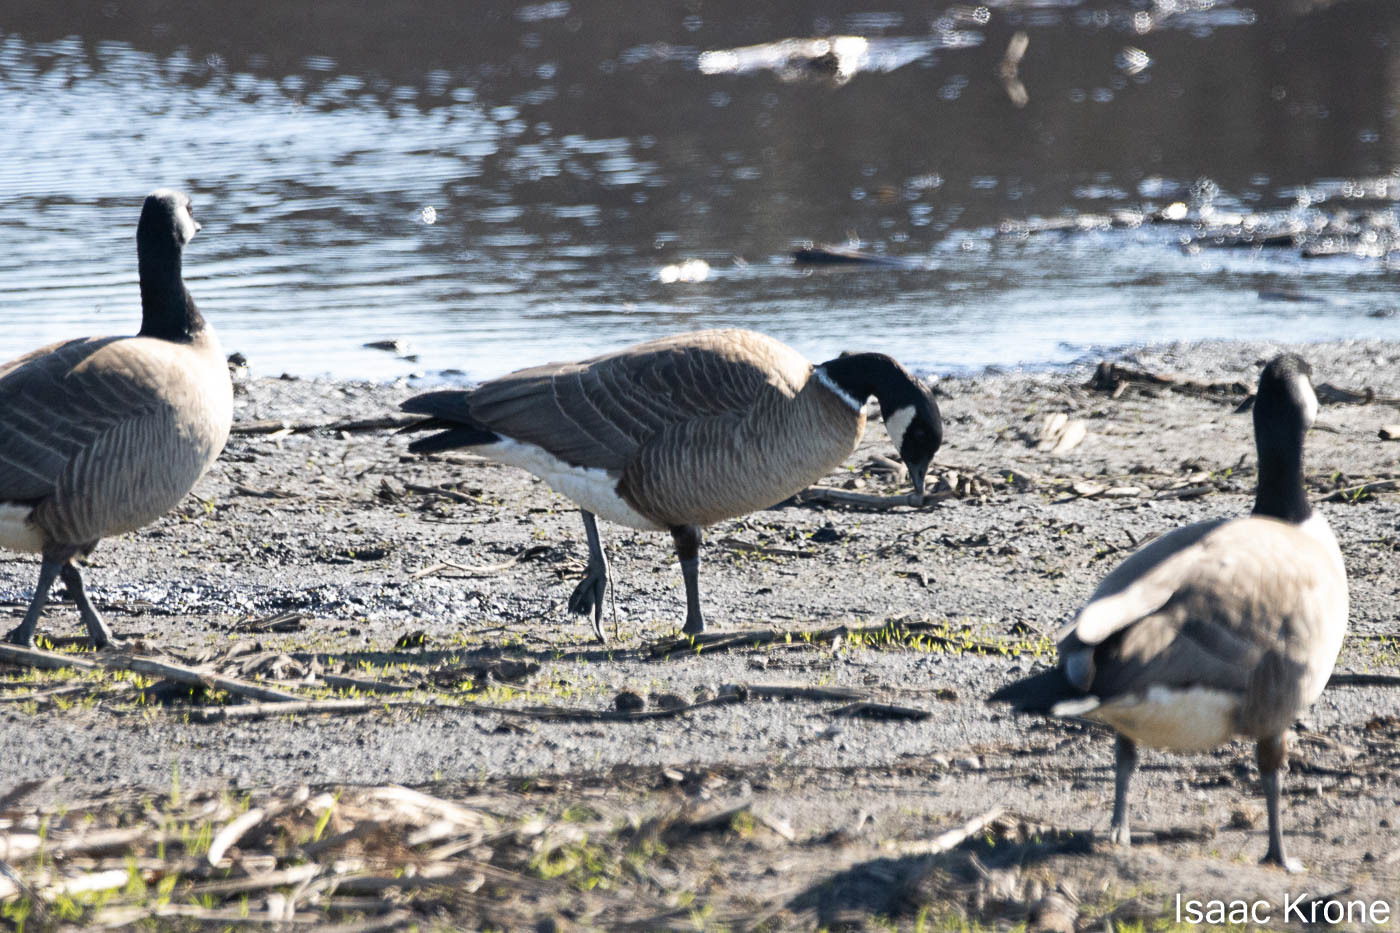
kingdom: Animalia
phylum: Chordata
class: Aves
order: Anseriformes
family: Anatidae
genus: Branta
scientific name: Branta hutchinsii
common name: Cackling goose
